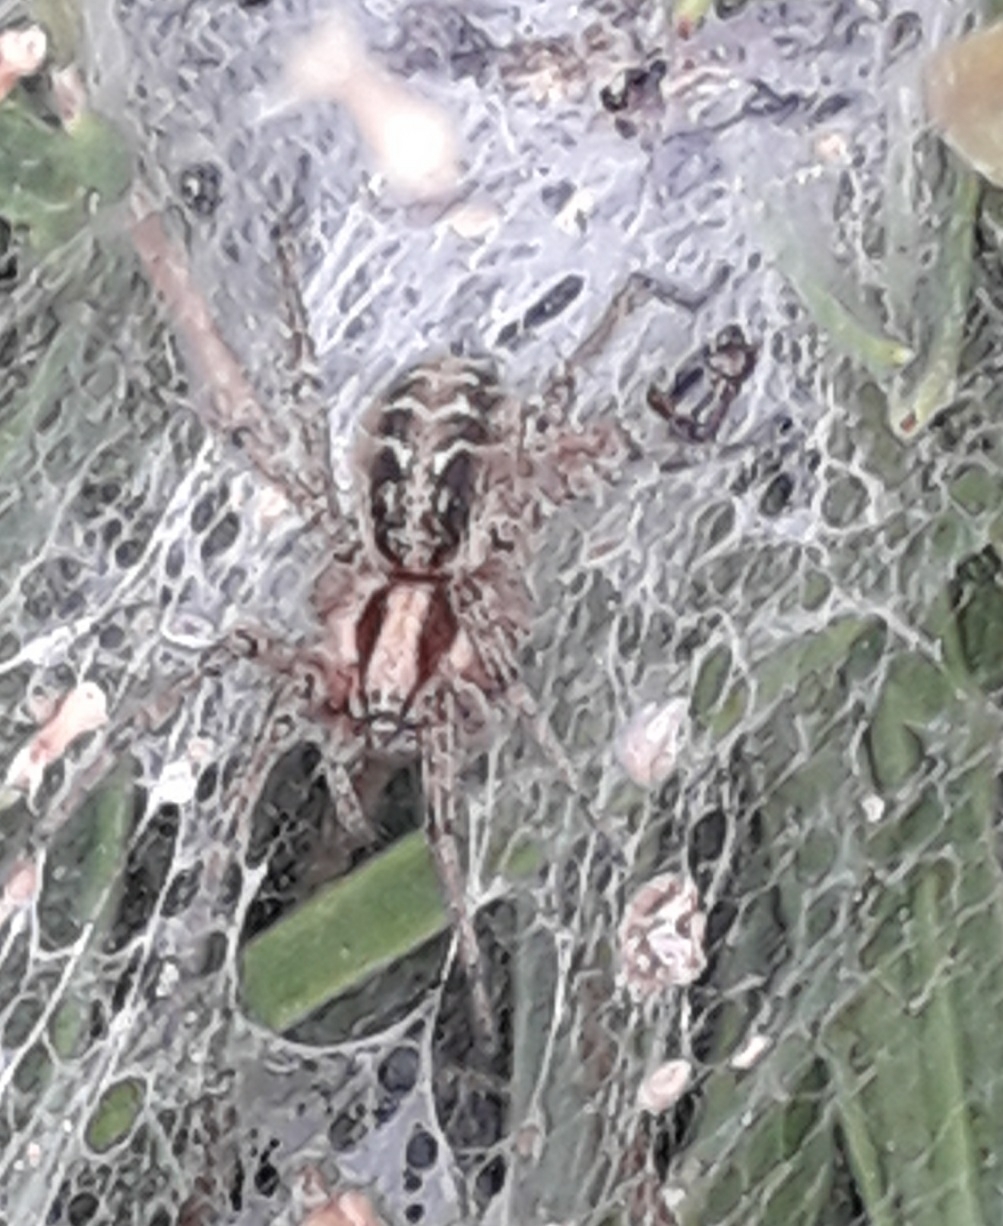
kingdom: Animalia
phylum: Arthropoda
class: Arachnida
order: Araneae
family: Agelenidae
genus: Agelena
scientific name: Agelena labyrinthica
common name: Labyrinth spider
